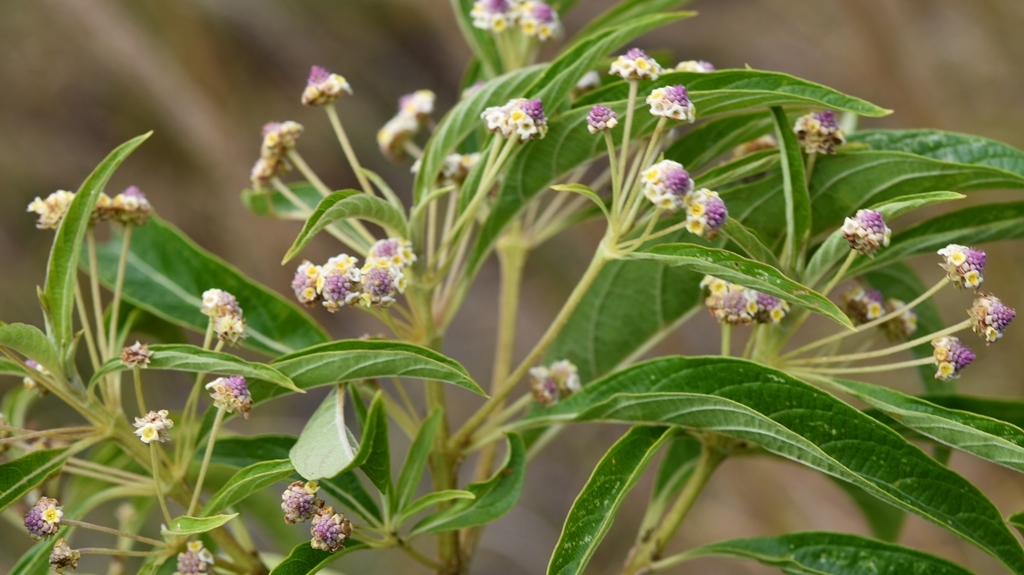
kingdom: Plantae
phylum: Tracheophyta
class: Magnoliopsida
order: Lamiales
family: Verbenaceae
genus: Lippia
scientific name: Lippia myriocephala
